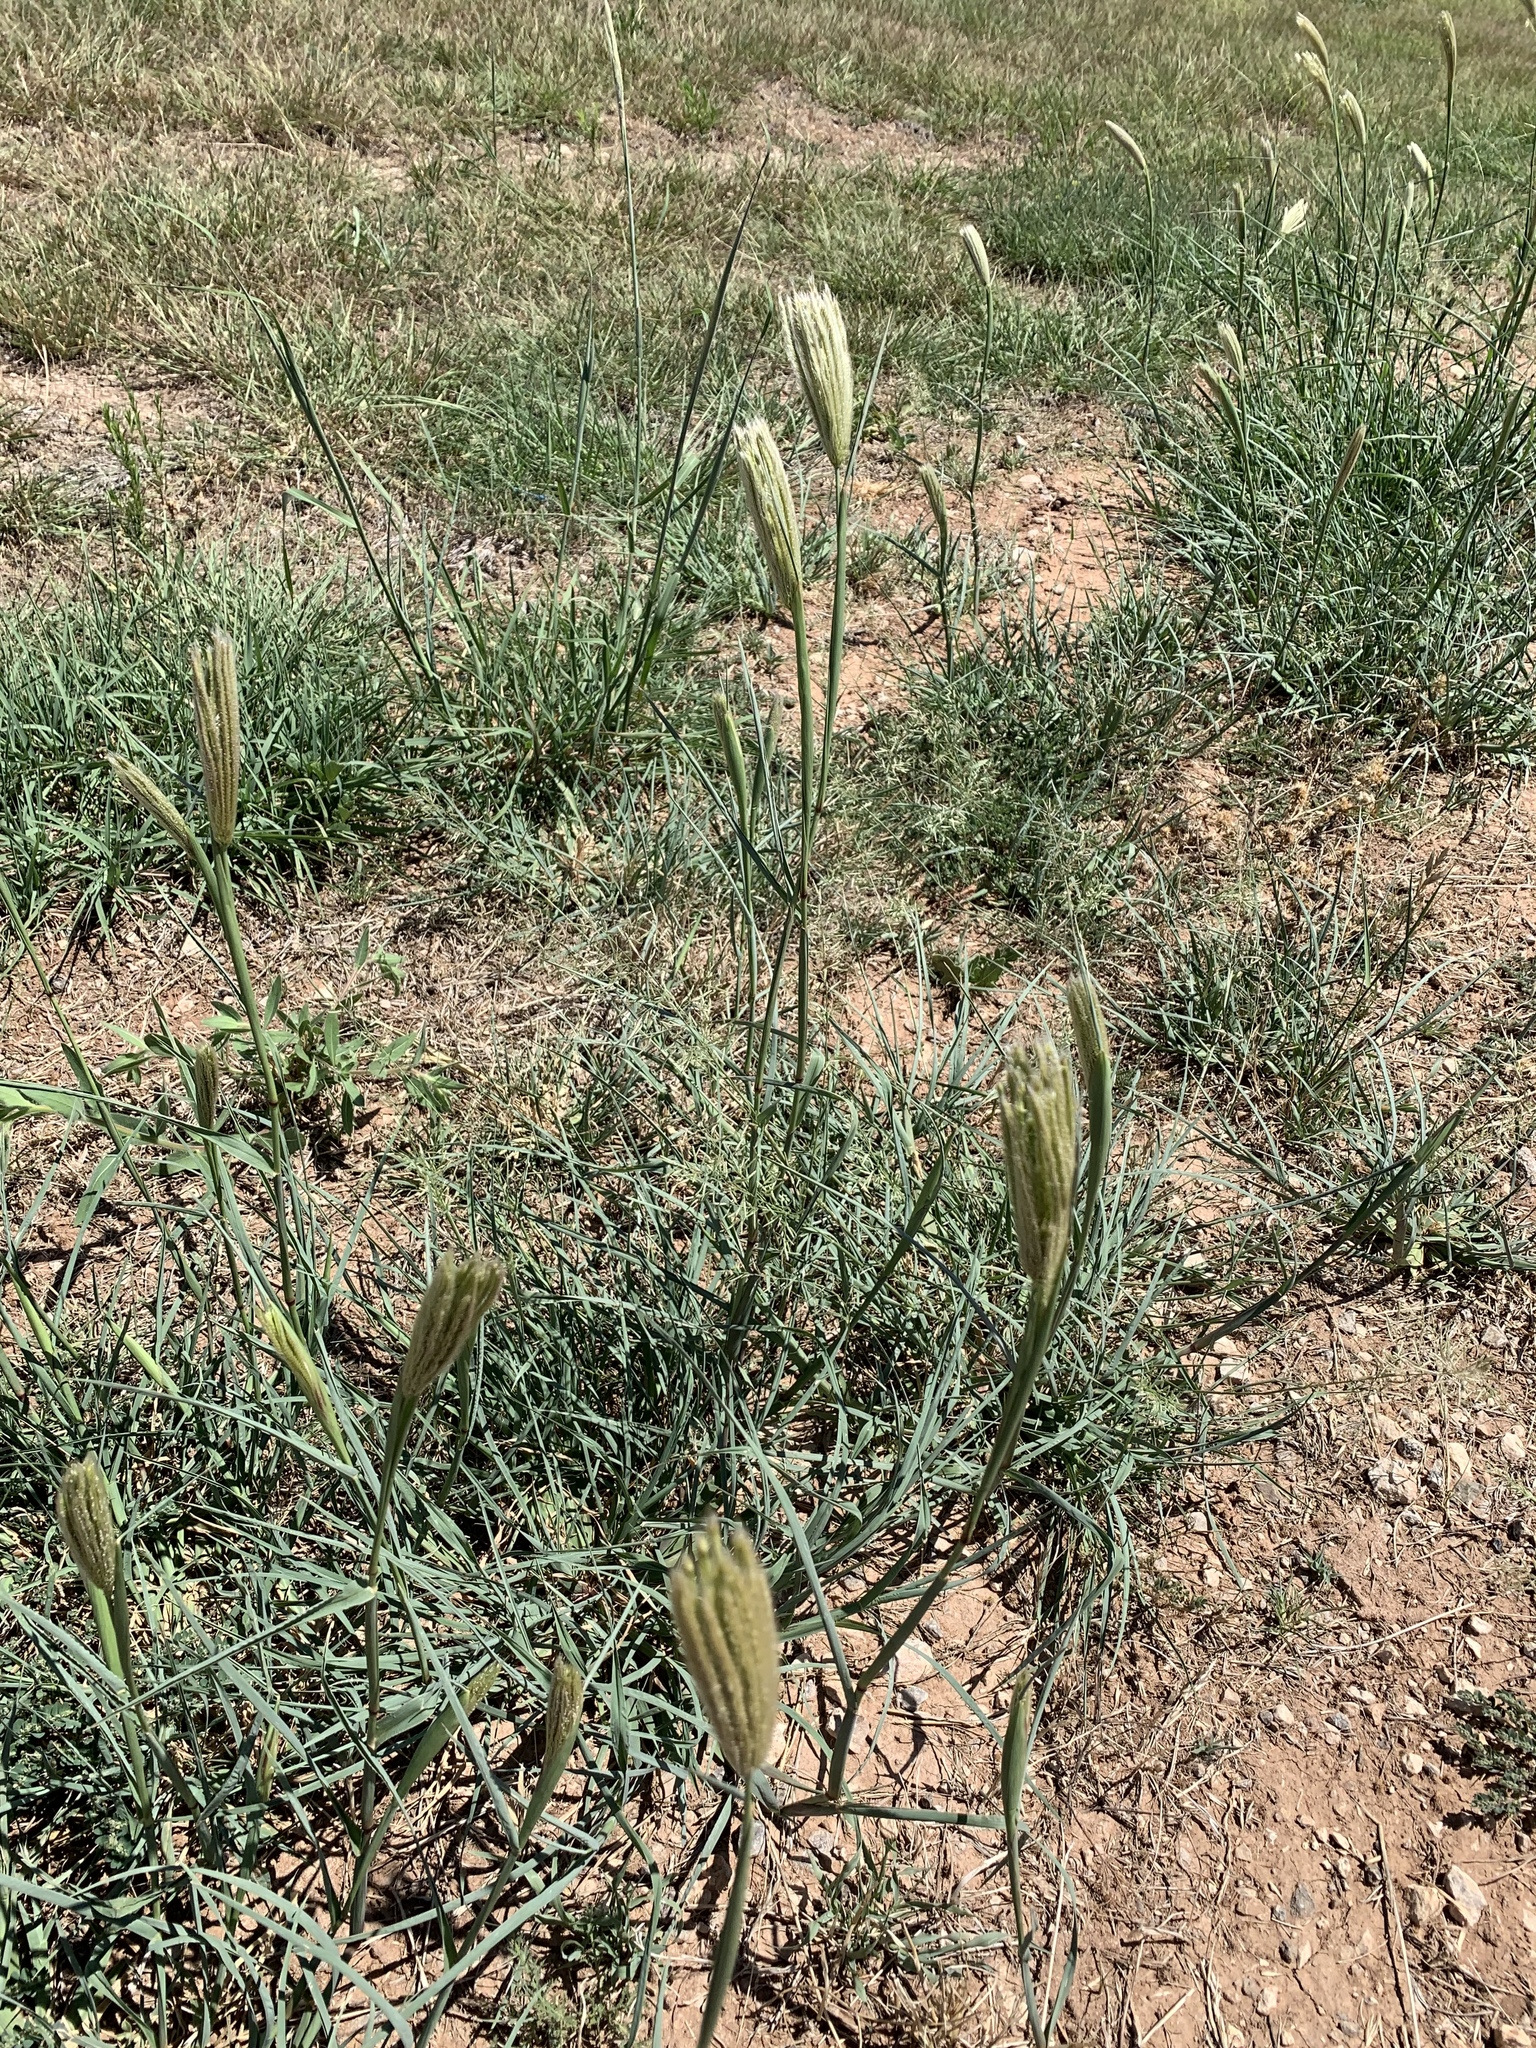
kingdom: Plantae
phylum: Tracheophyta
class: Liliopsida
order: Poales
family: Poaceae
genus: Chloris
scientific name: Chloris virgata
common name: Feathery rhodes-grass
